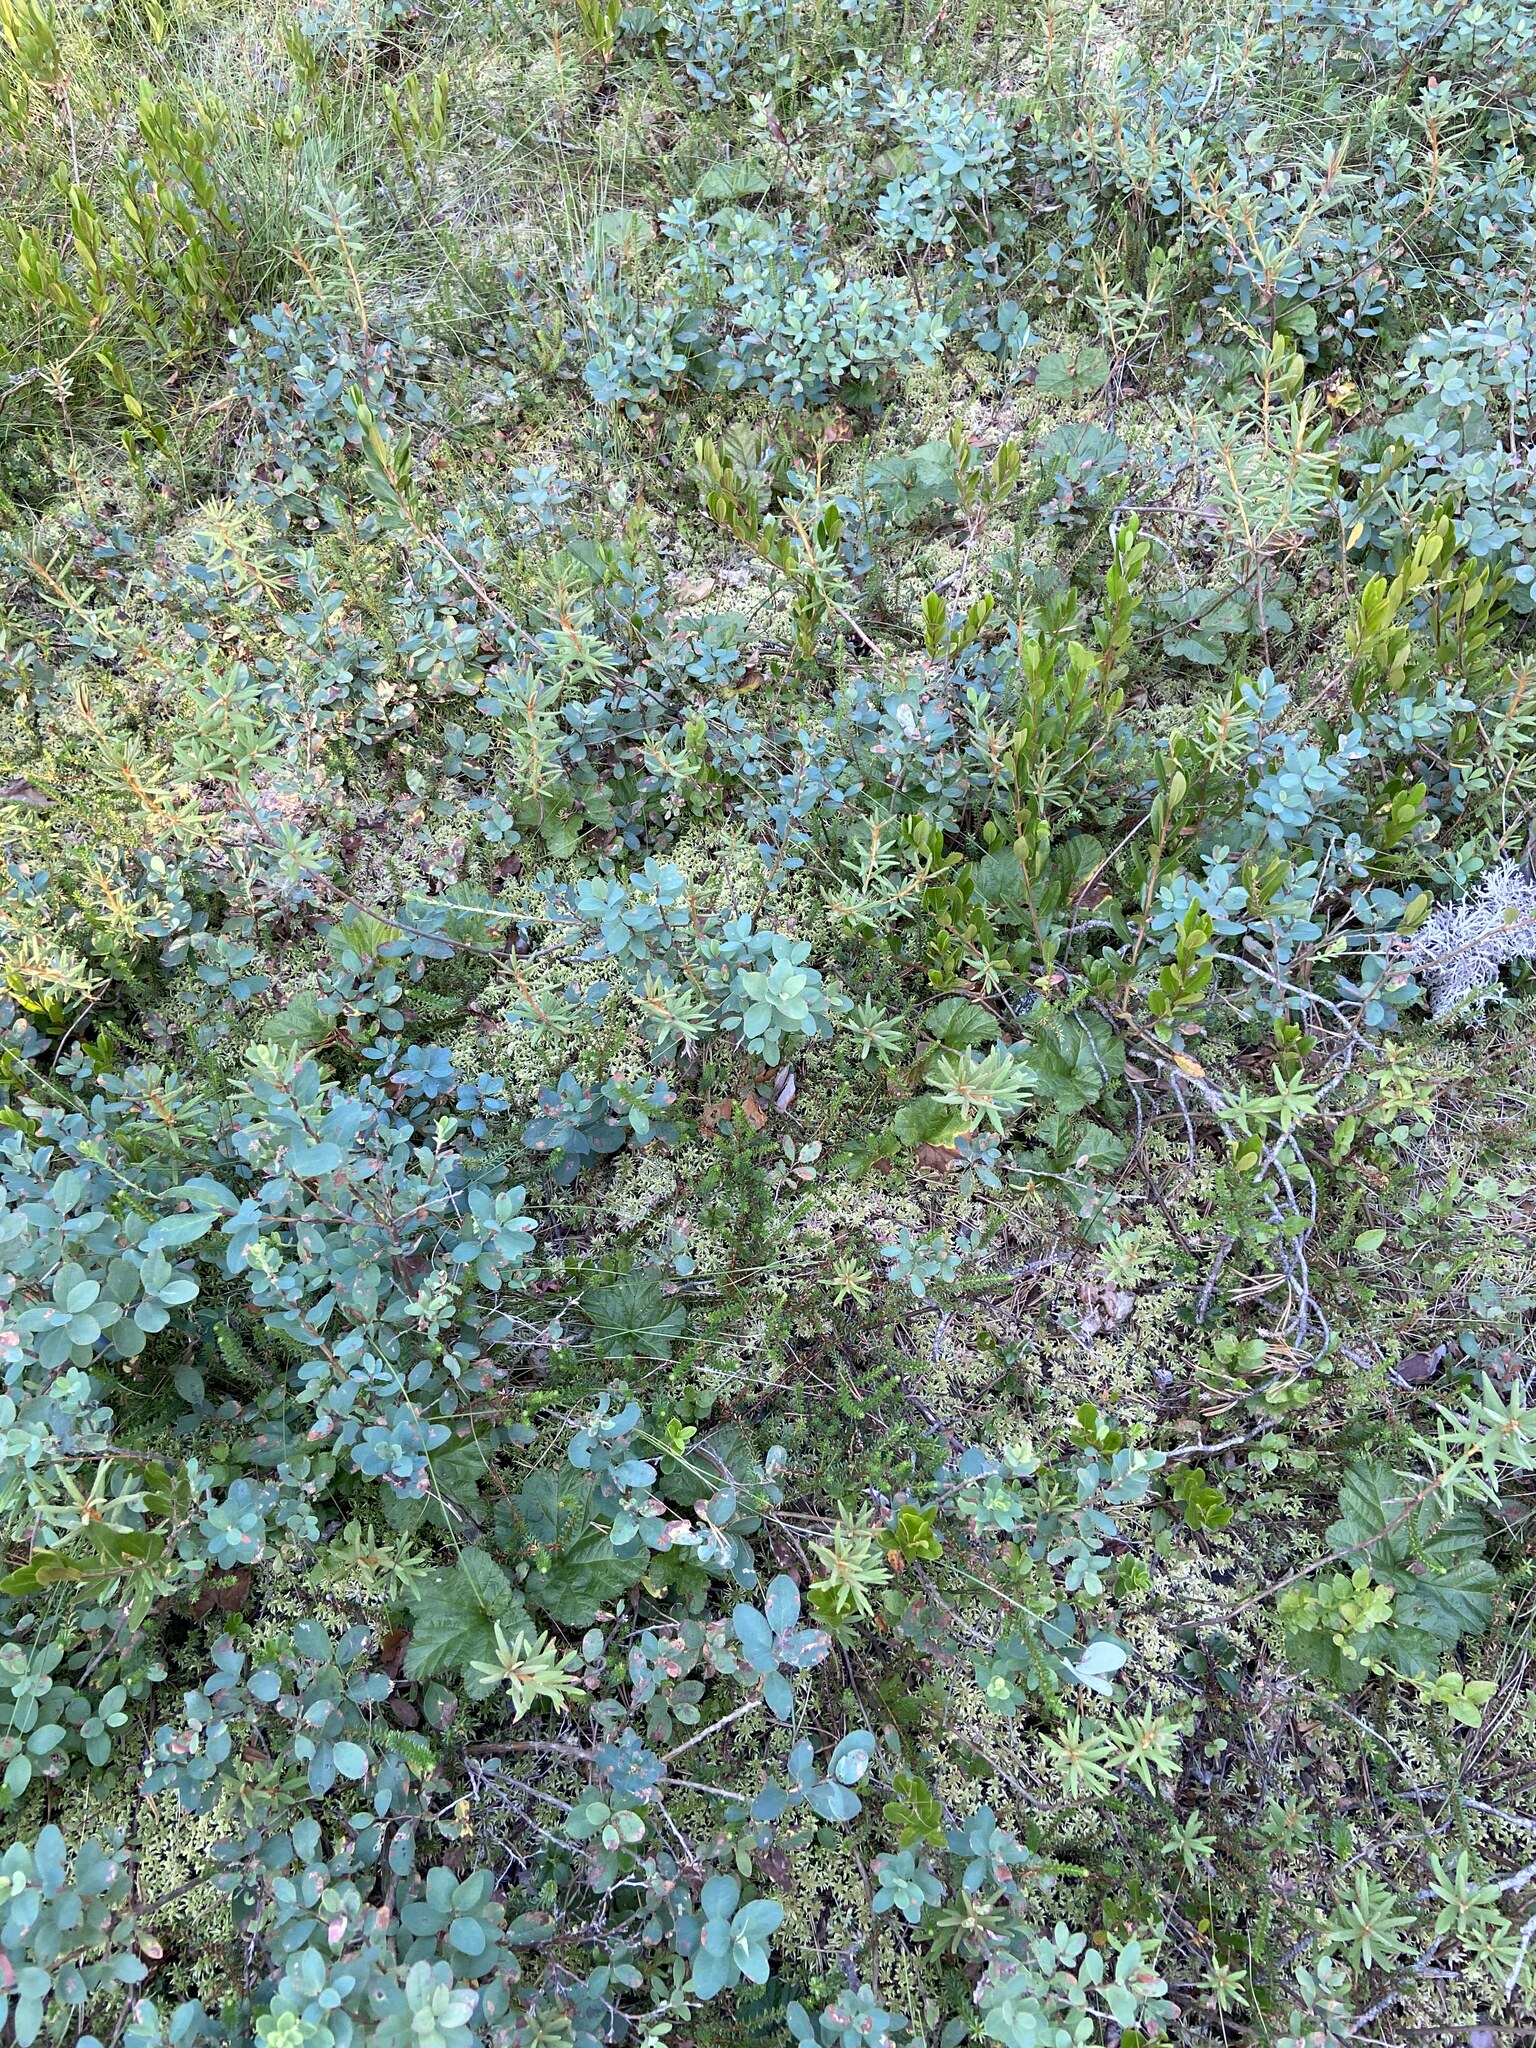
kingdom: Plantae
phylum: Tracheophyta
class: Magnoliopsida
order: Ericales
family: Ericaceae
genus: Vaccinium
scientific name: Vaccinium uliginosum
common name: Bog bilberry
